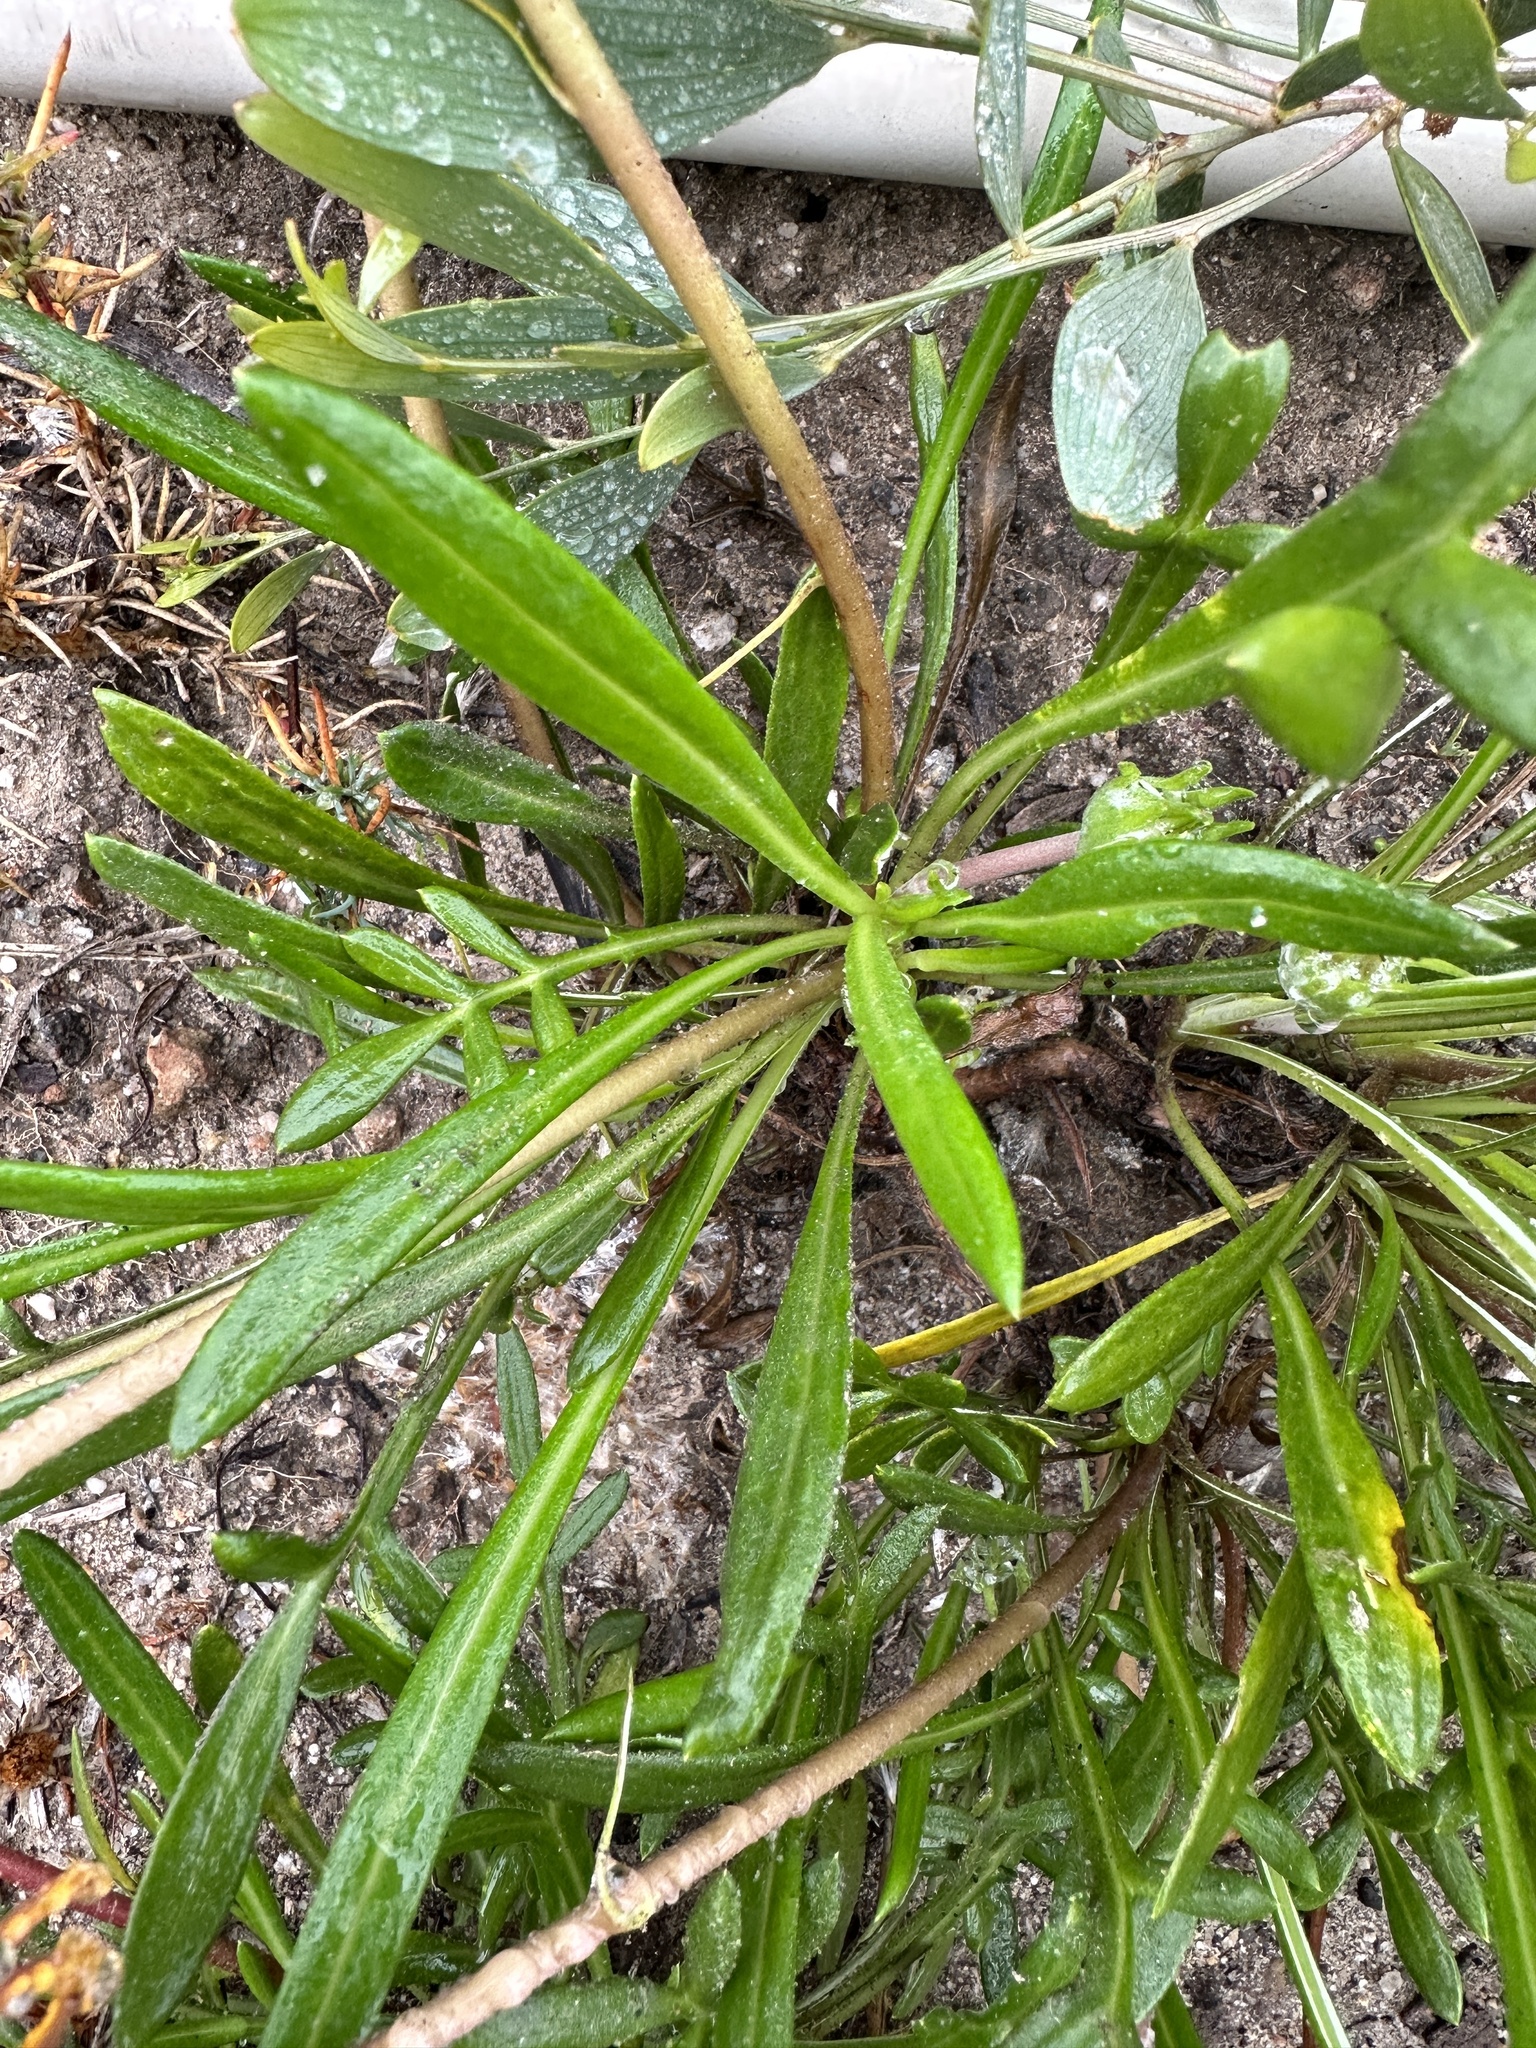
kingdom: Plantae
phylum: Tracheophyta
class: Magnoliopsida
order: Asterales
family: Asteraceae
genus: Gazania
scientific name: Gazania linearis
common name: Treasureflower
